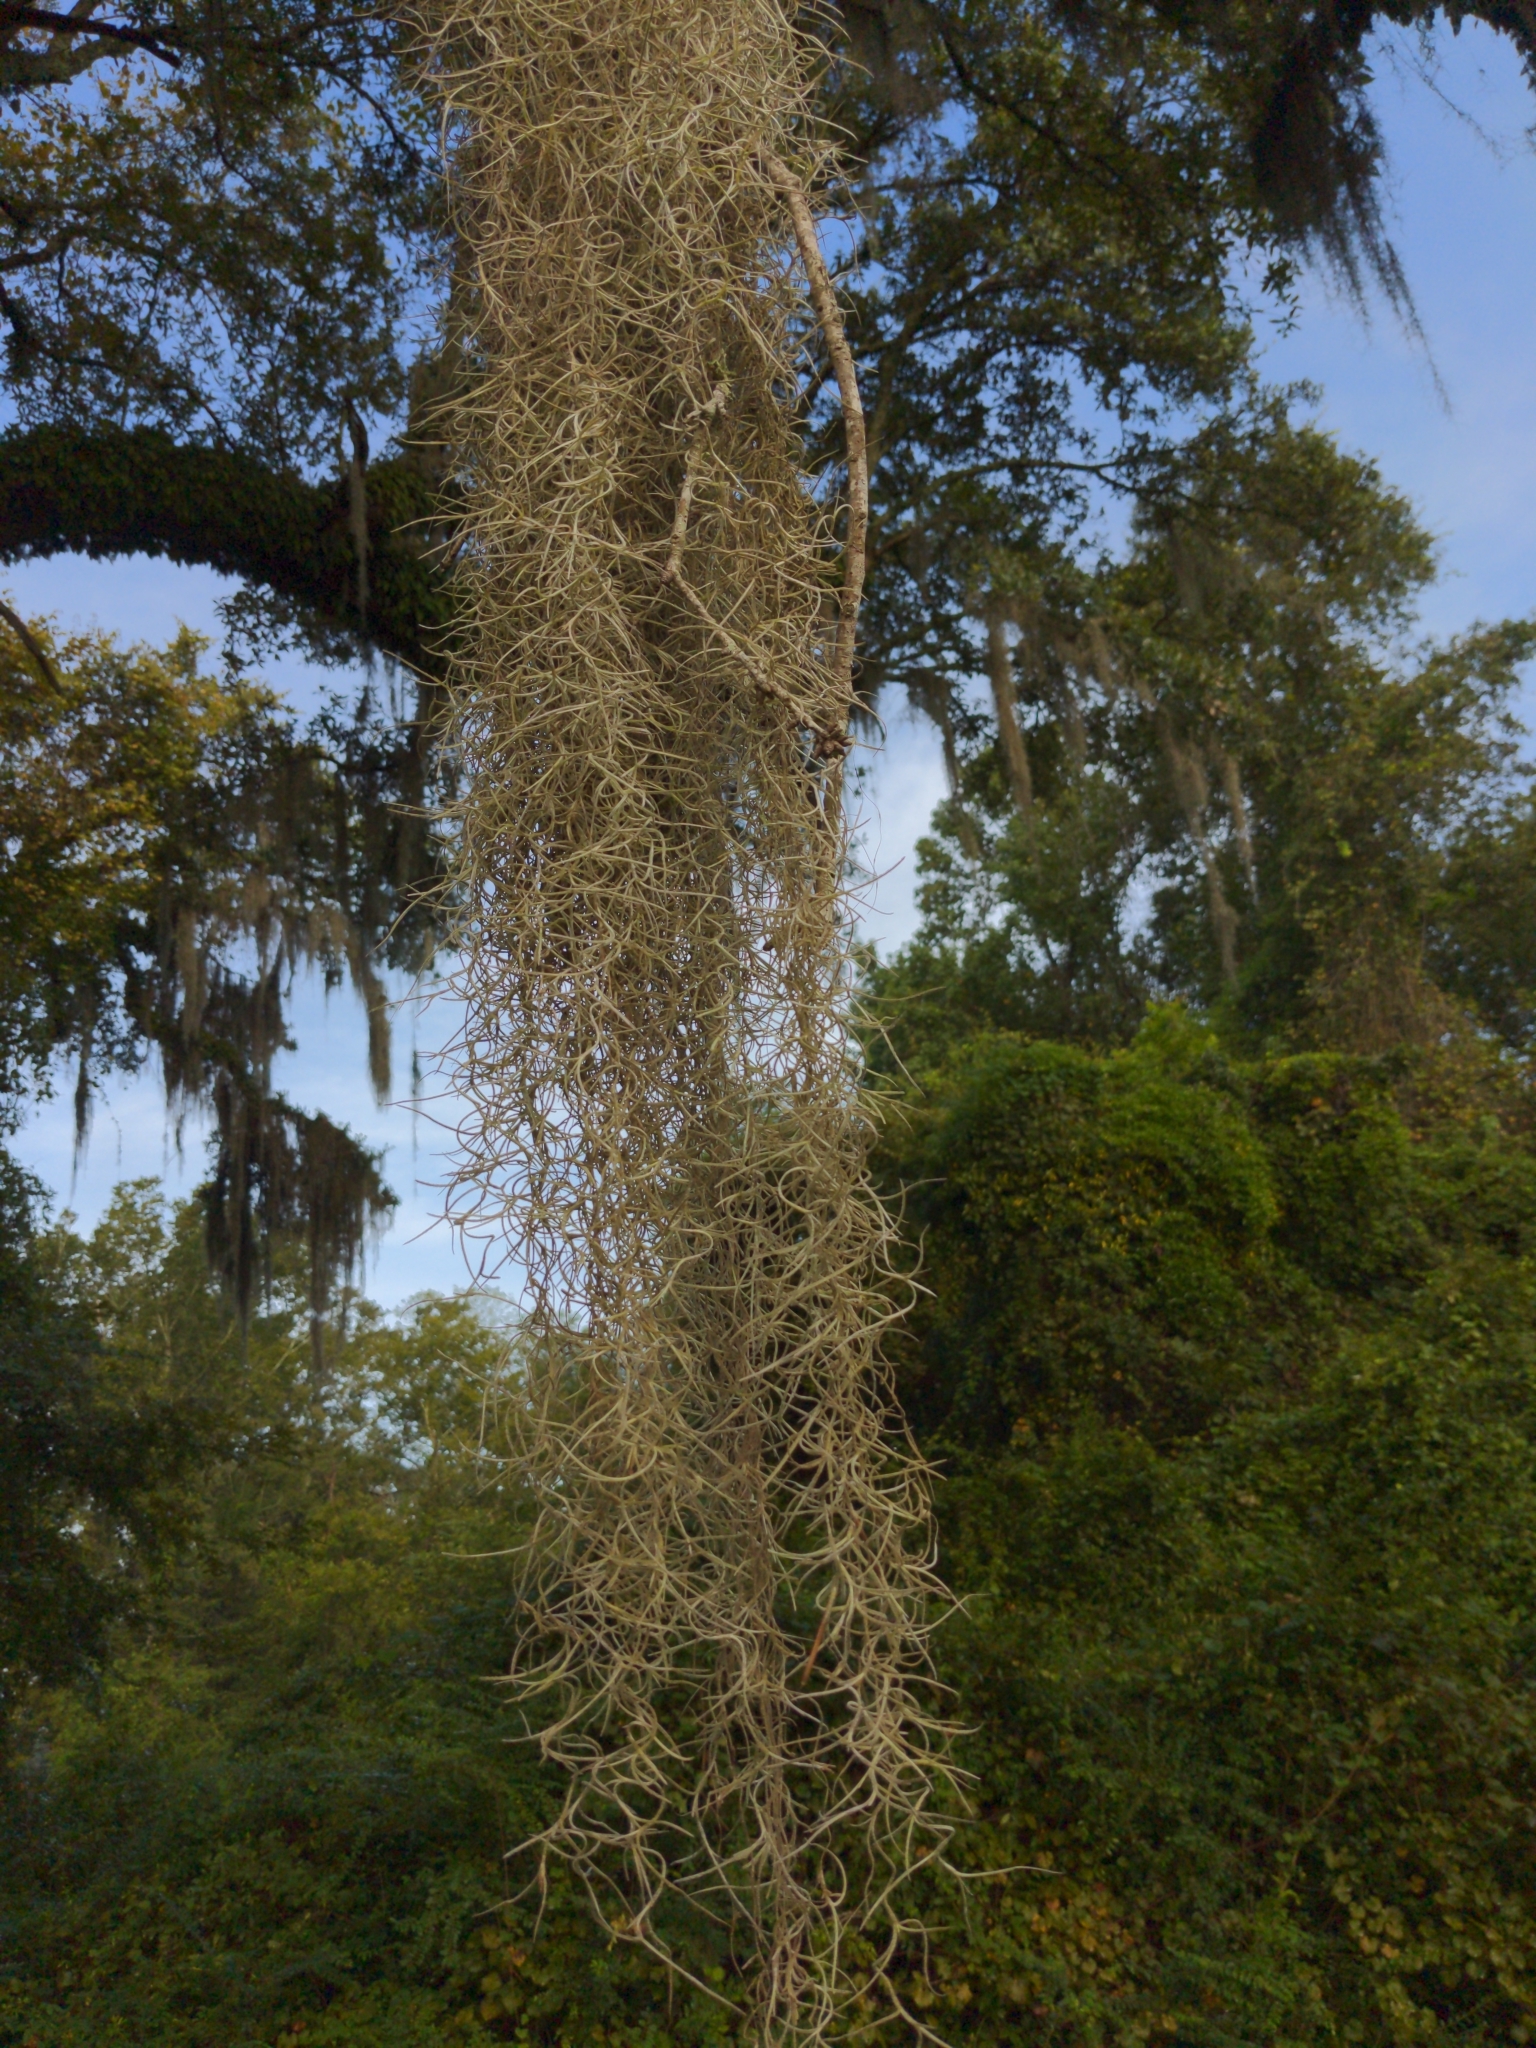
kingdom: Plantae
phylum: Tracheophyta
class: Liliopsida
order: Poales
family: Bromeliaceae
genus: Tillandsia
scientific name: Tillandsia usneoides
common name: Spanish moss
